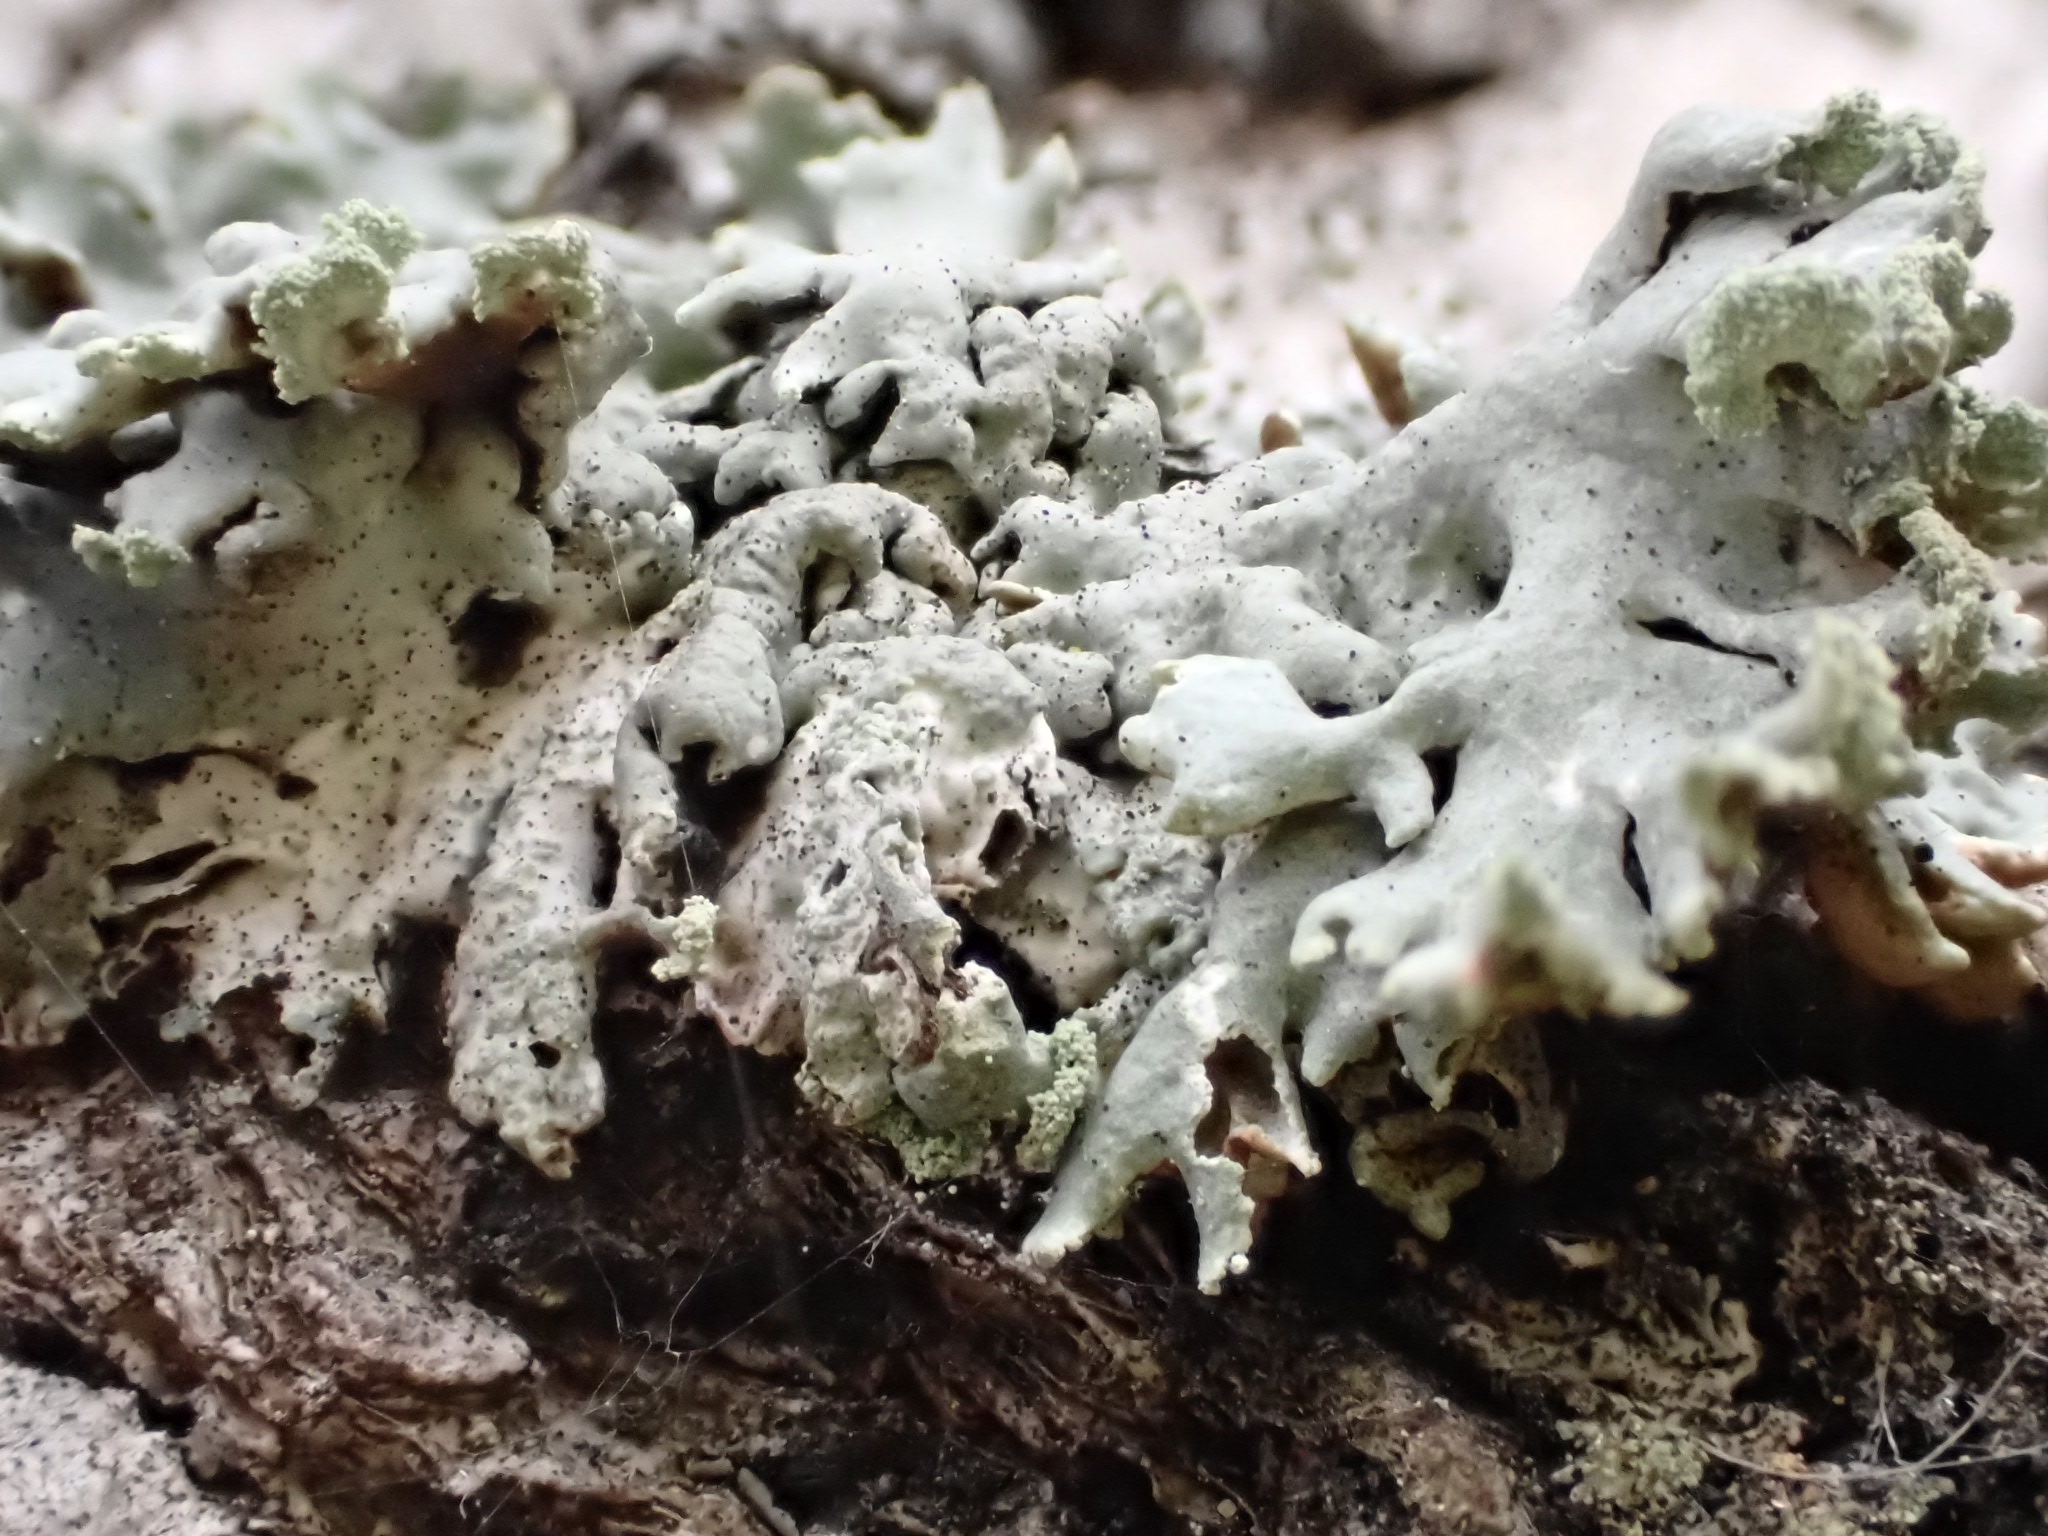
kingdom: Fungi
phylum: Ascomycota
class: Lecanoromycetes
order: Lecanorales
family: Parmeliaceae
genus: Hypogymnia
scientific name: Hypogymnia physodes
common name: Dark crottle
